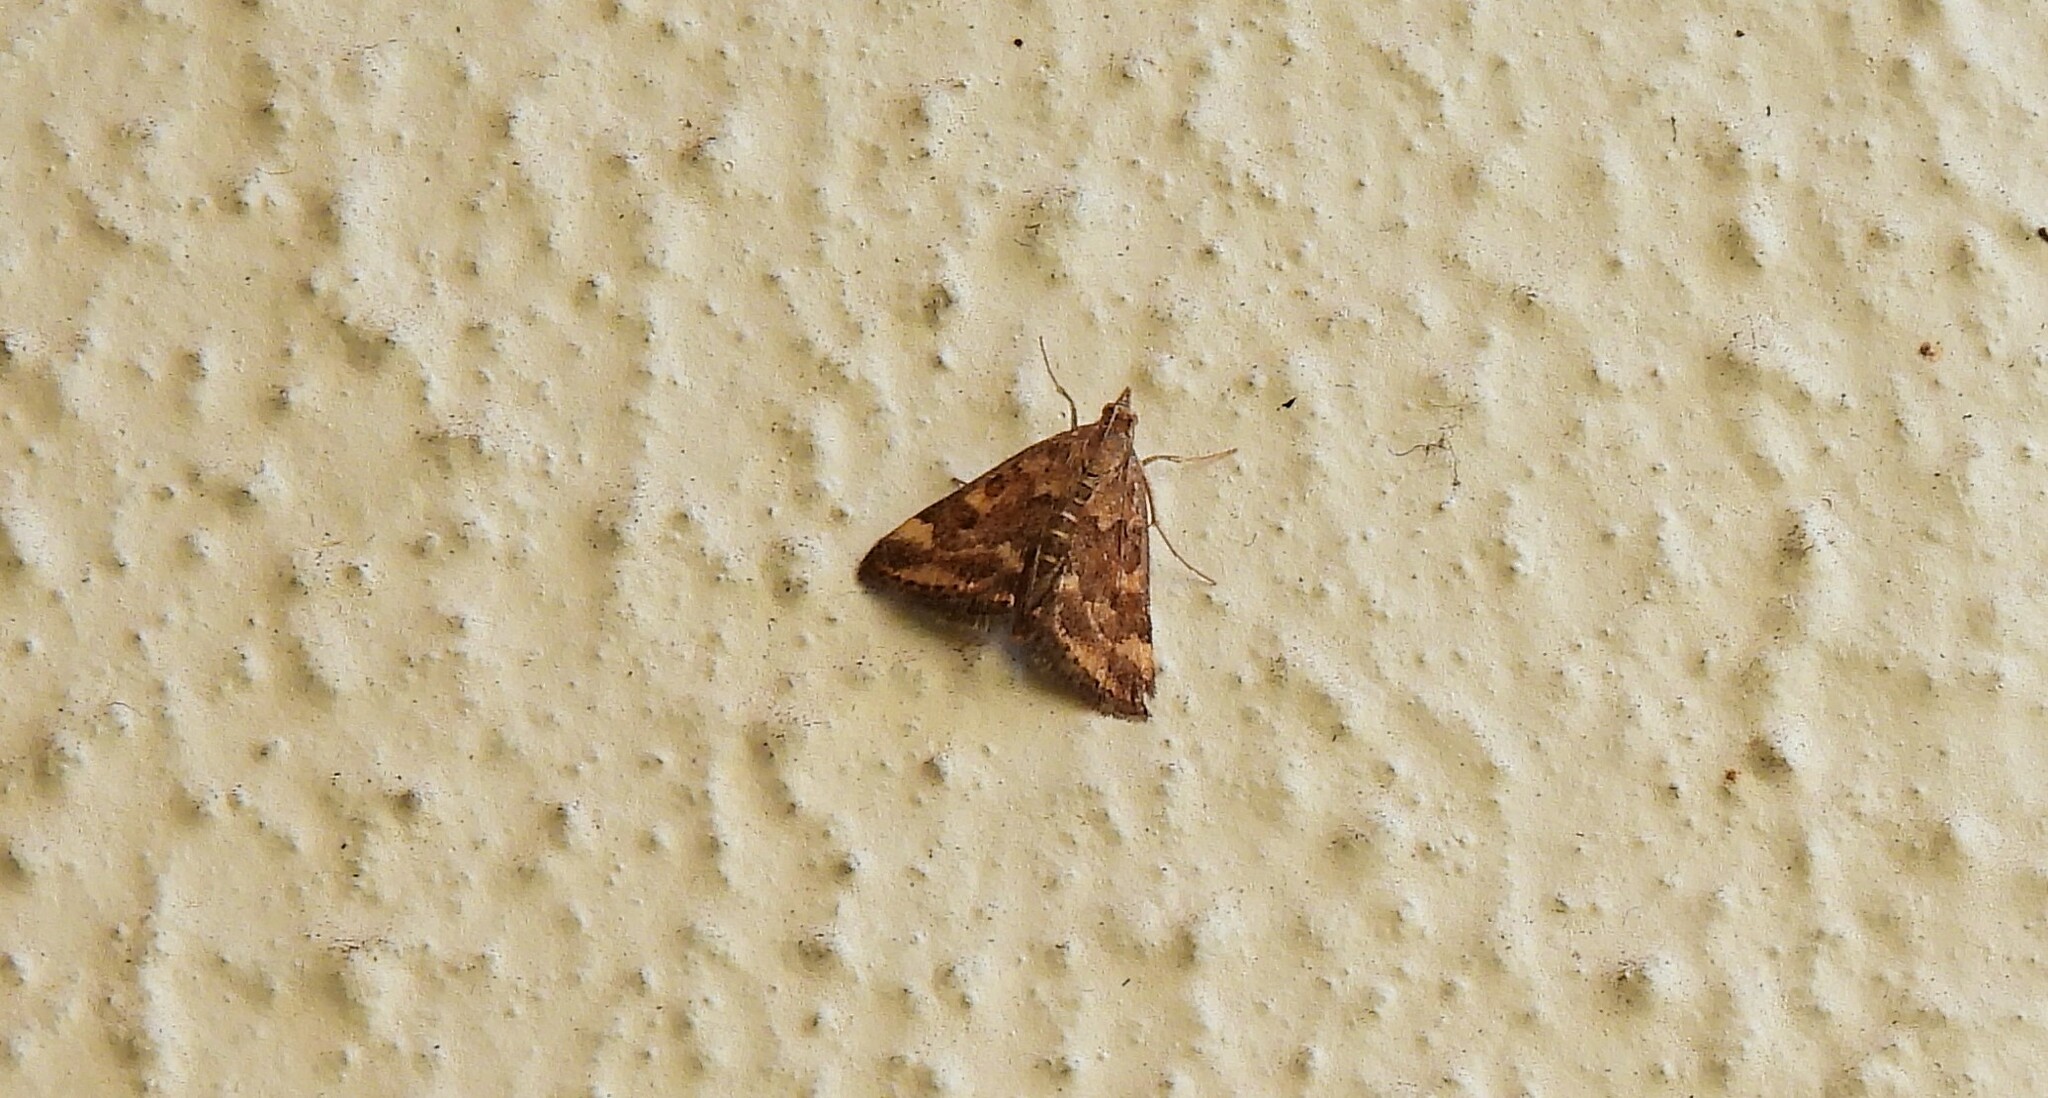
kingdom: Animalia
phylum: Arthropoda
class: Insecta
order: Lepidoptera
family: Crambidae
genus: Pyrausta
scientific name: Pyrausta despicata
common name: Straw-barred pearl
